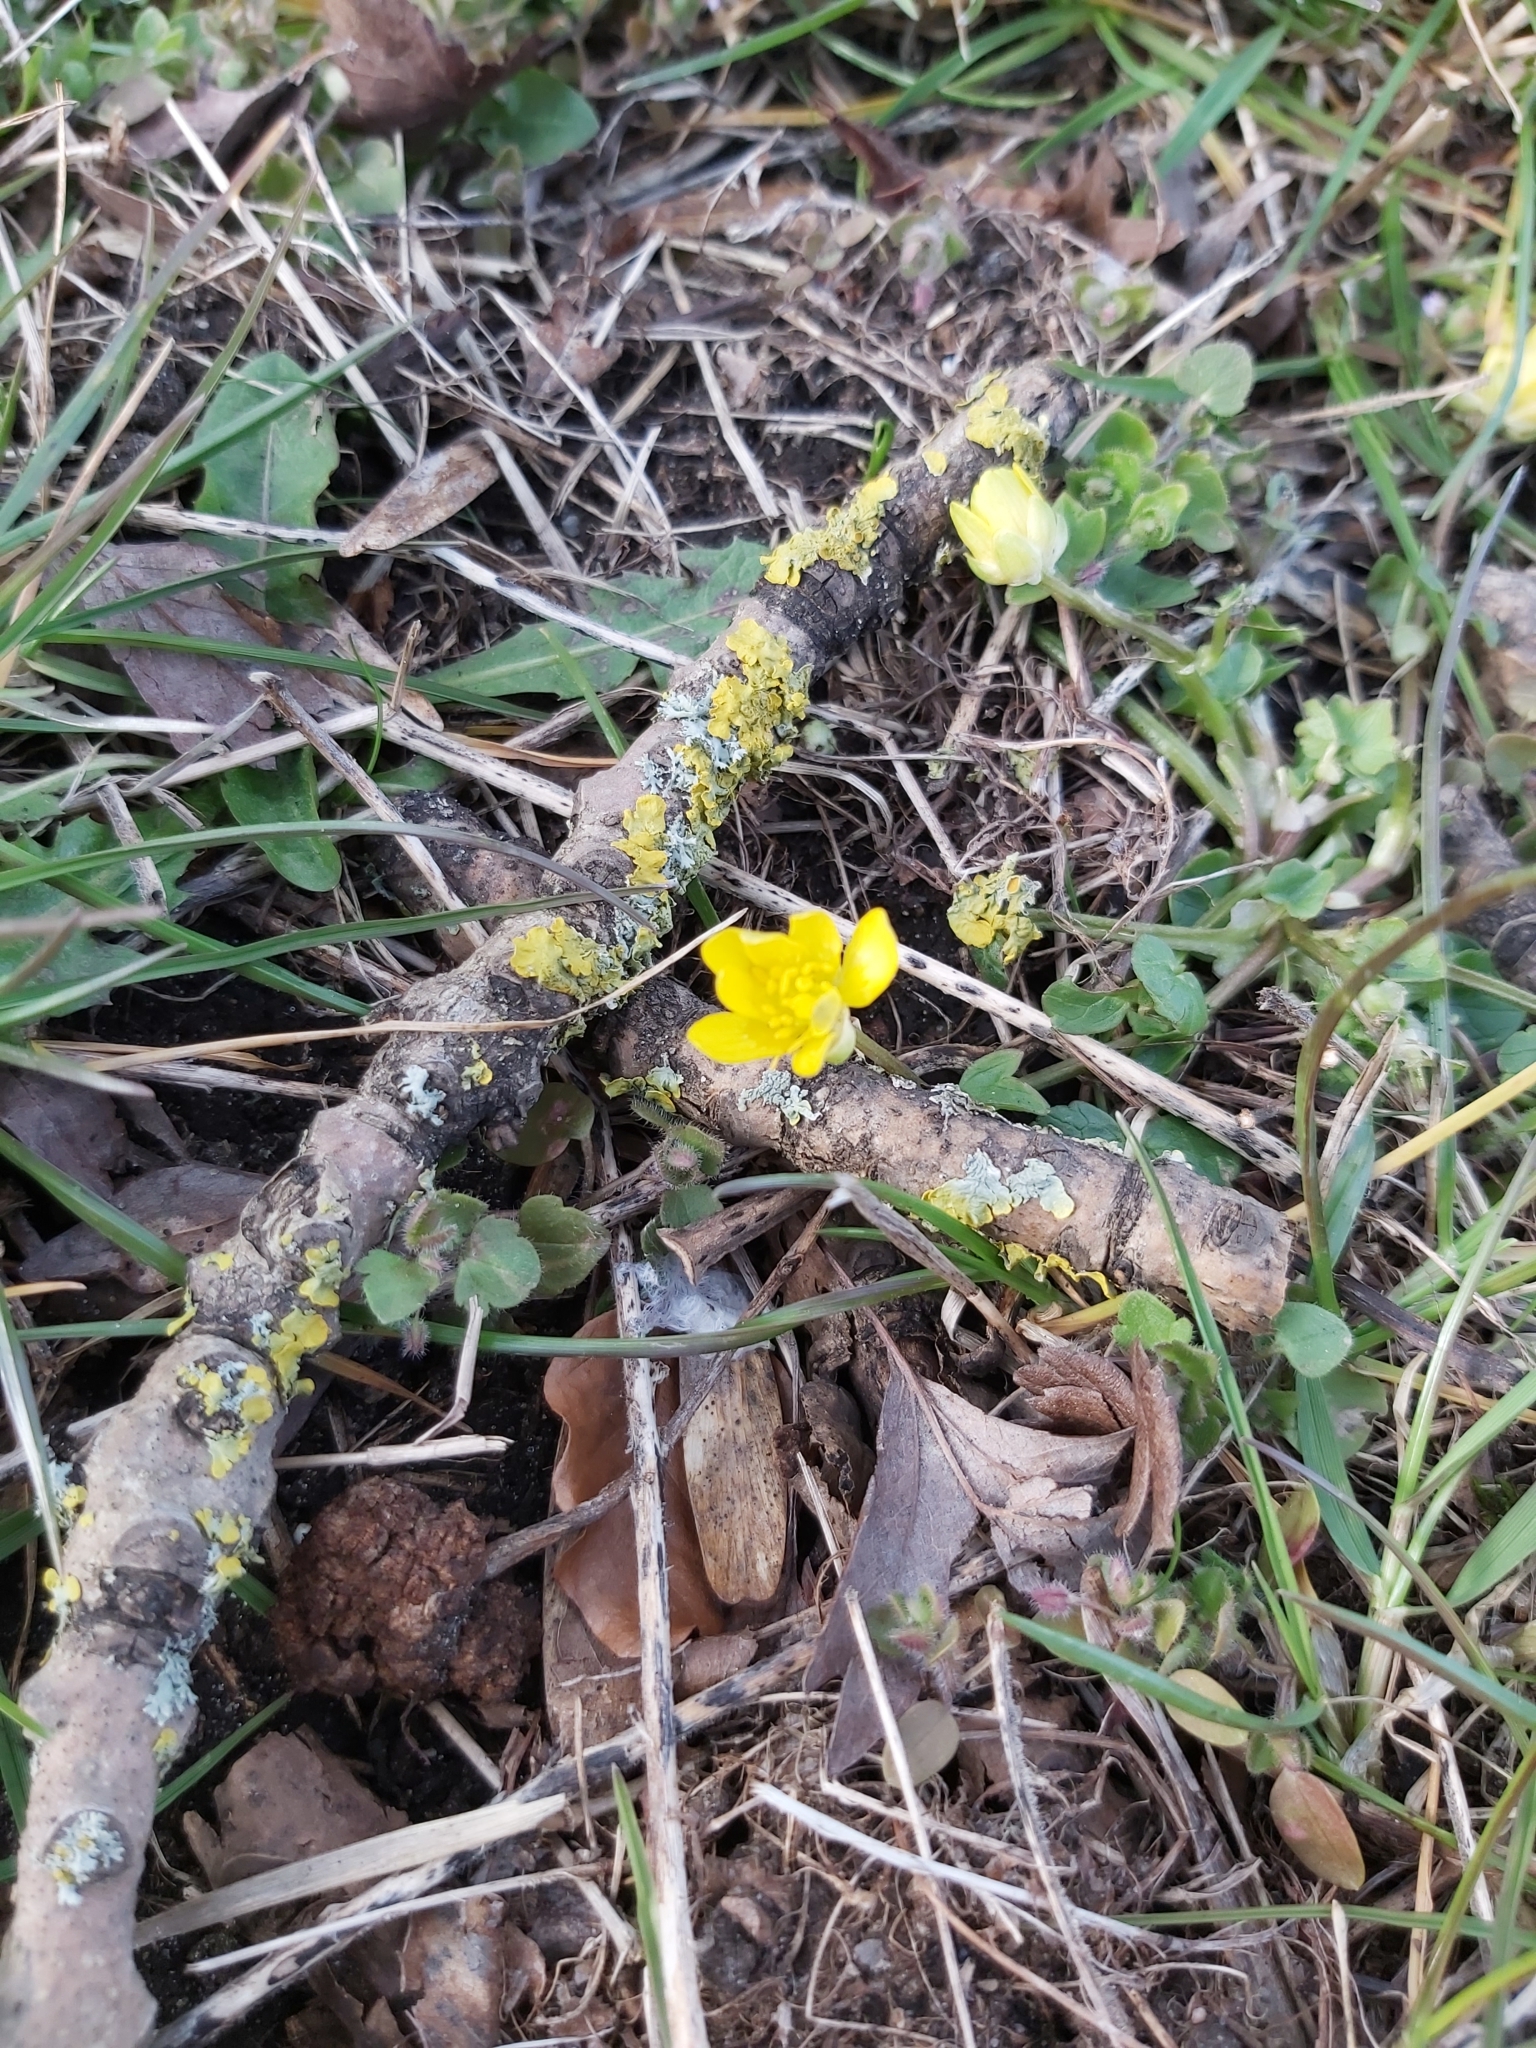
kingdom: Plantae
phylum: Tracheophyta
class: Magnoliopsida
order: Ranunculales
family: Ranunculaceae
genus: Ficaria
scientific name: Ficaria verna
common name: Lesser celandine
